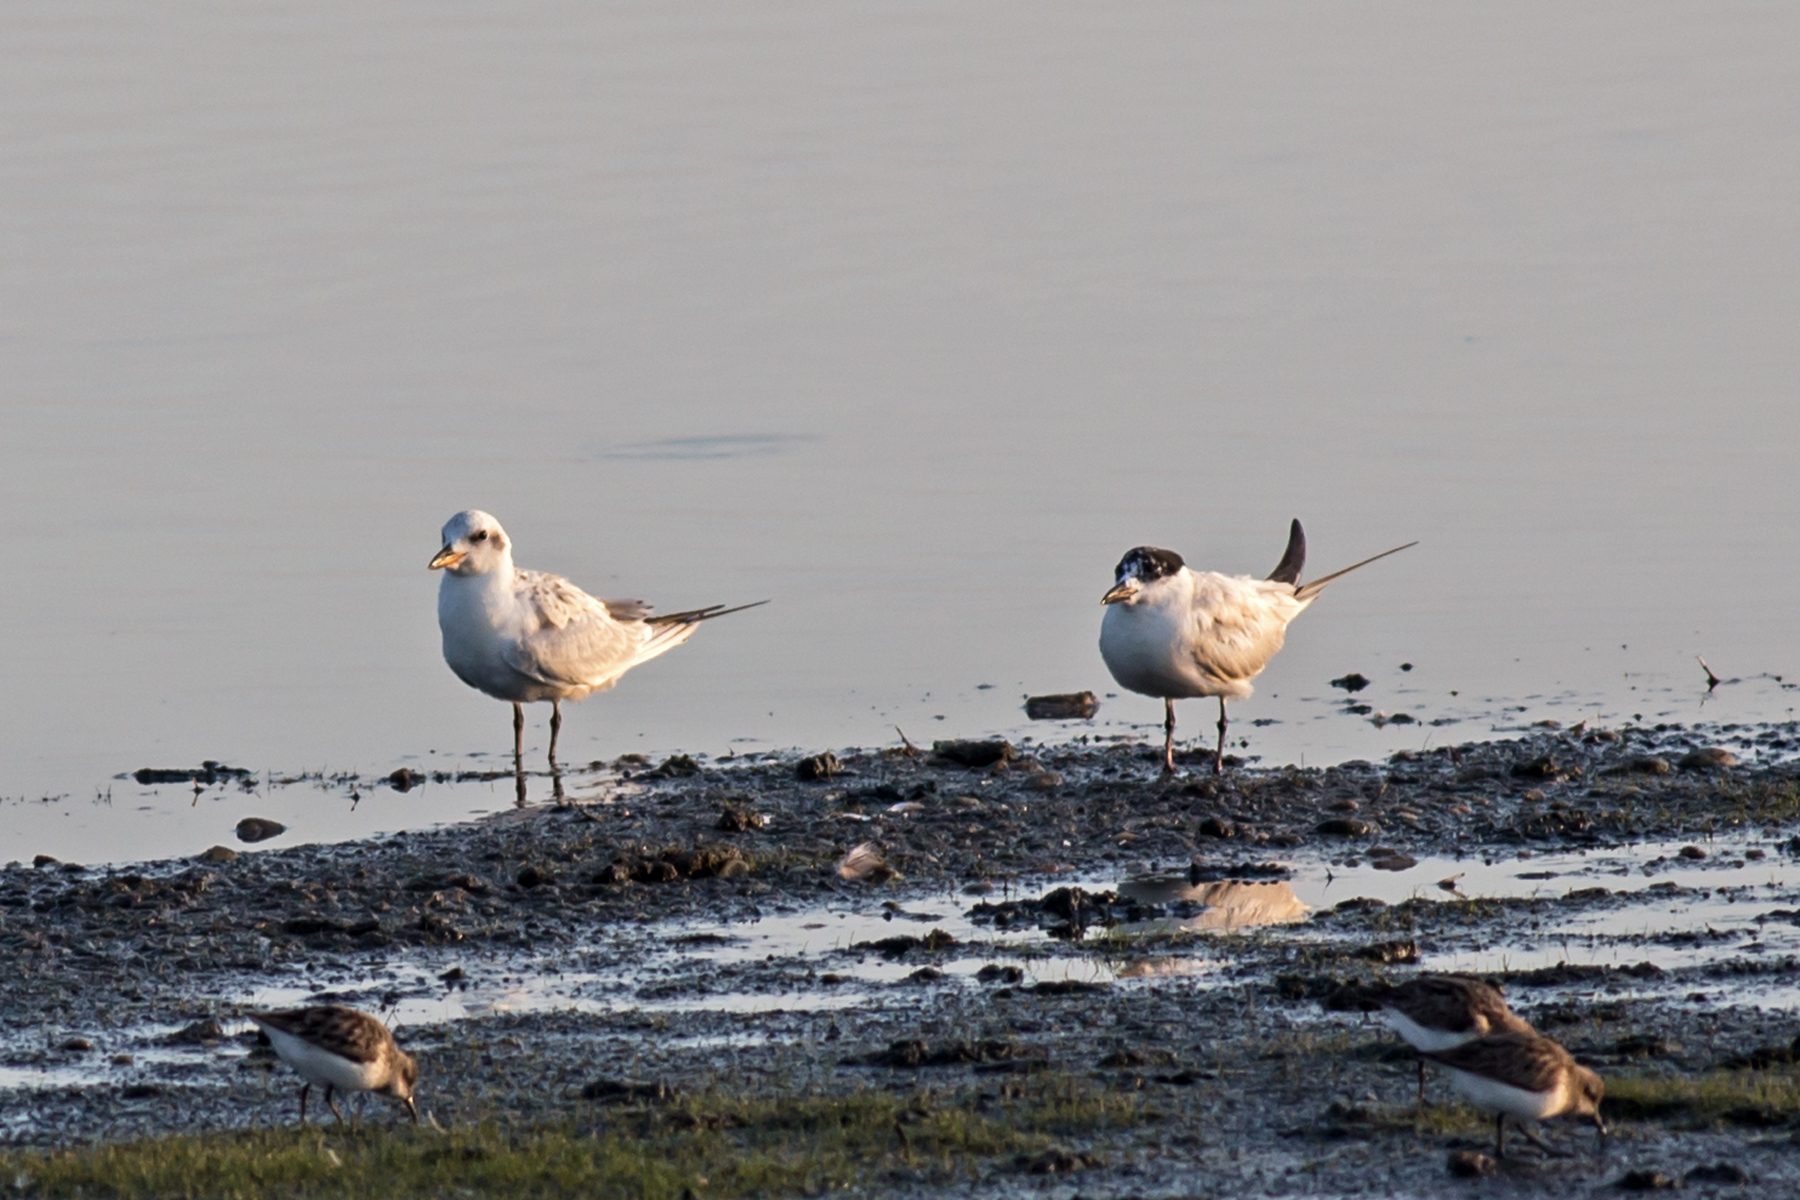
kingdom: Animalia
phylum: Chordata
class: Aves
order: Charadriiformes
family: Laridae
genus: Gelochelidon
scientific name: Gelochelidon nilotica
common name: Gull-billed tern
